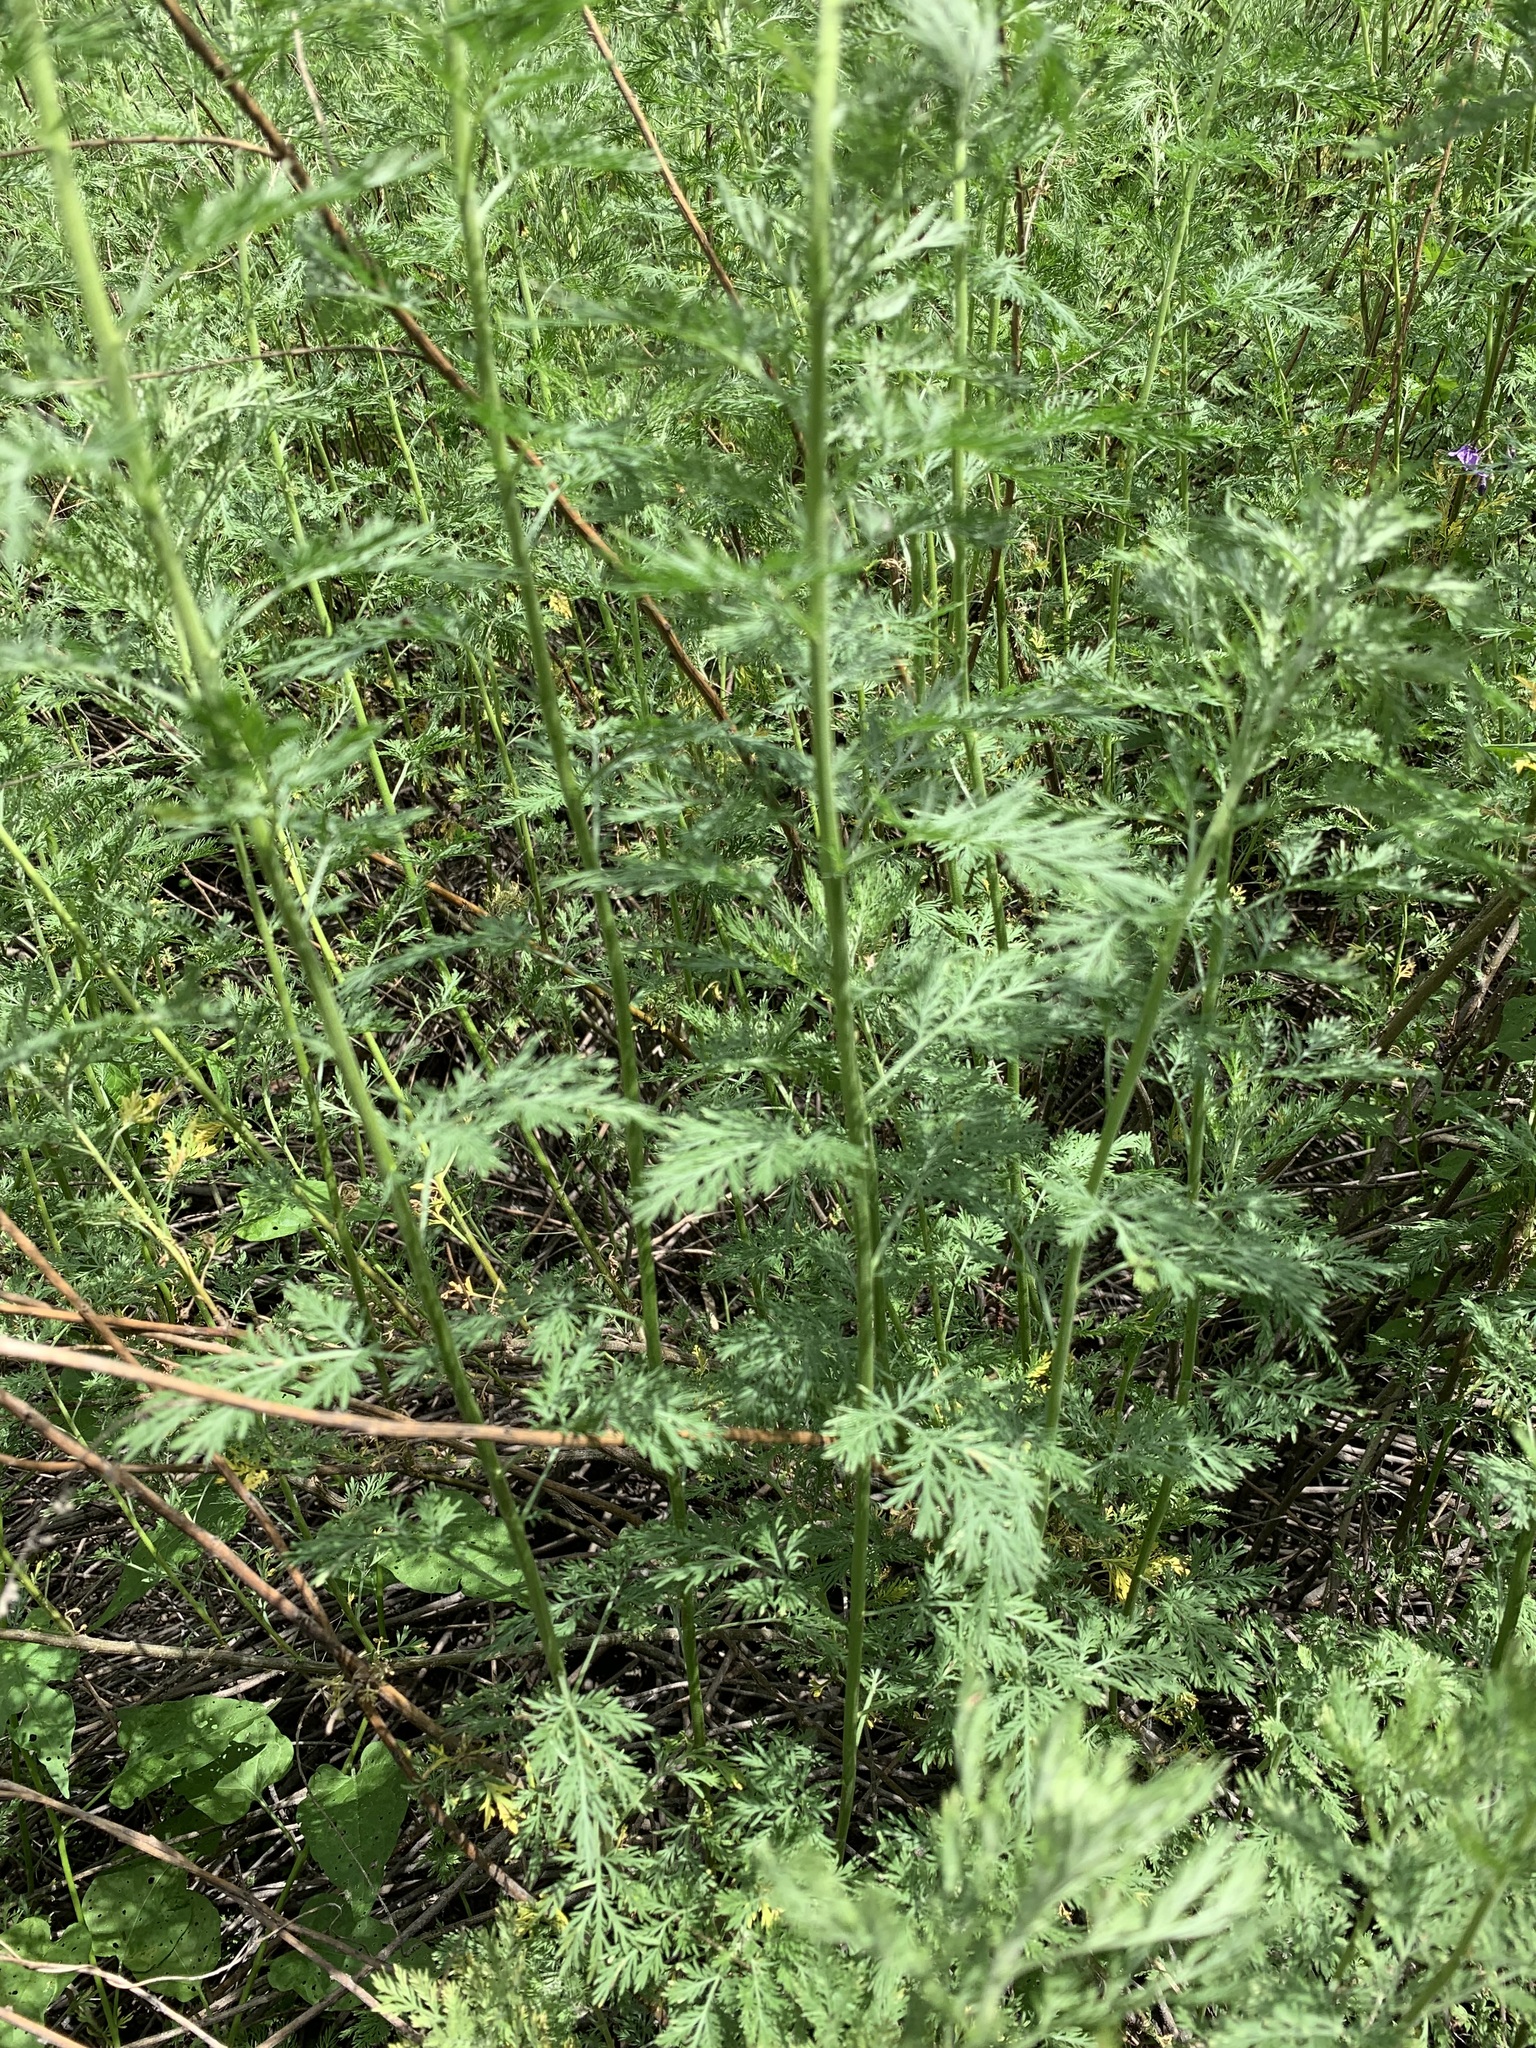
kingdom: Plantae
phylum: Tracheophyta
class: Magnoliopsida
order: Asterales
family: Asteraceae
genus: Artemisia
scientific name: Artemisia abrotanum
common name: Southernwood
